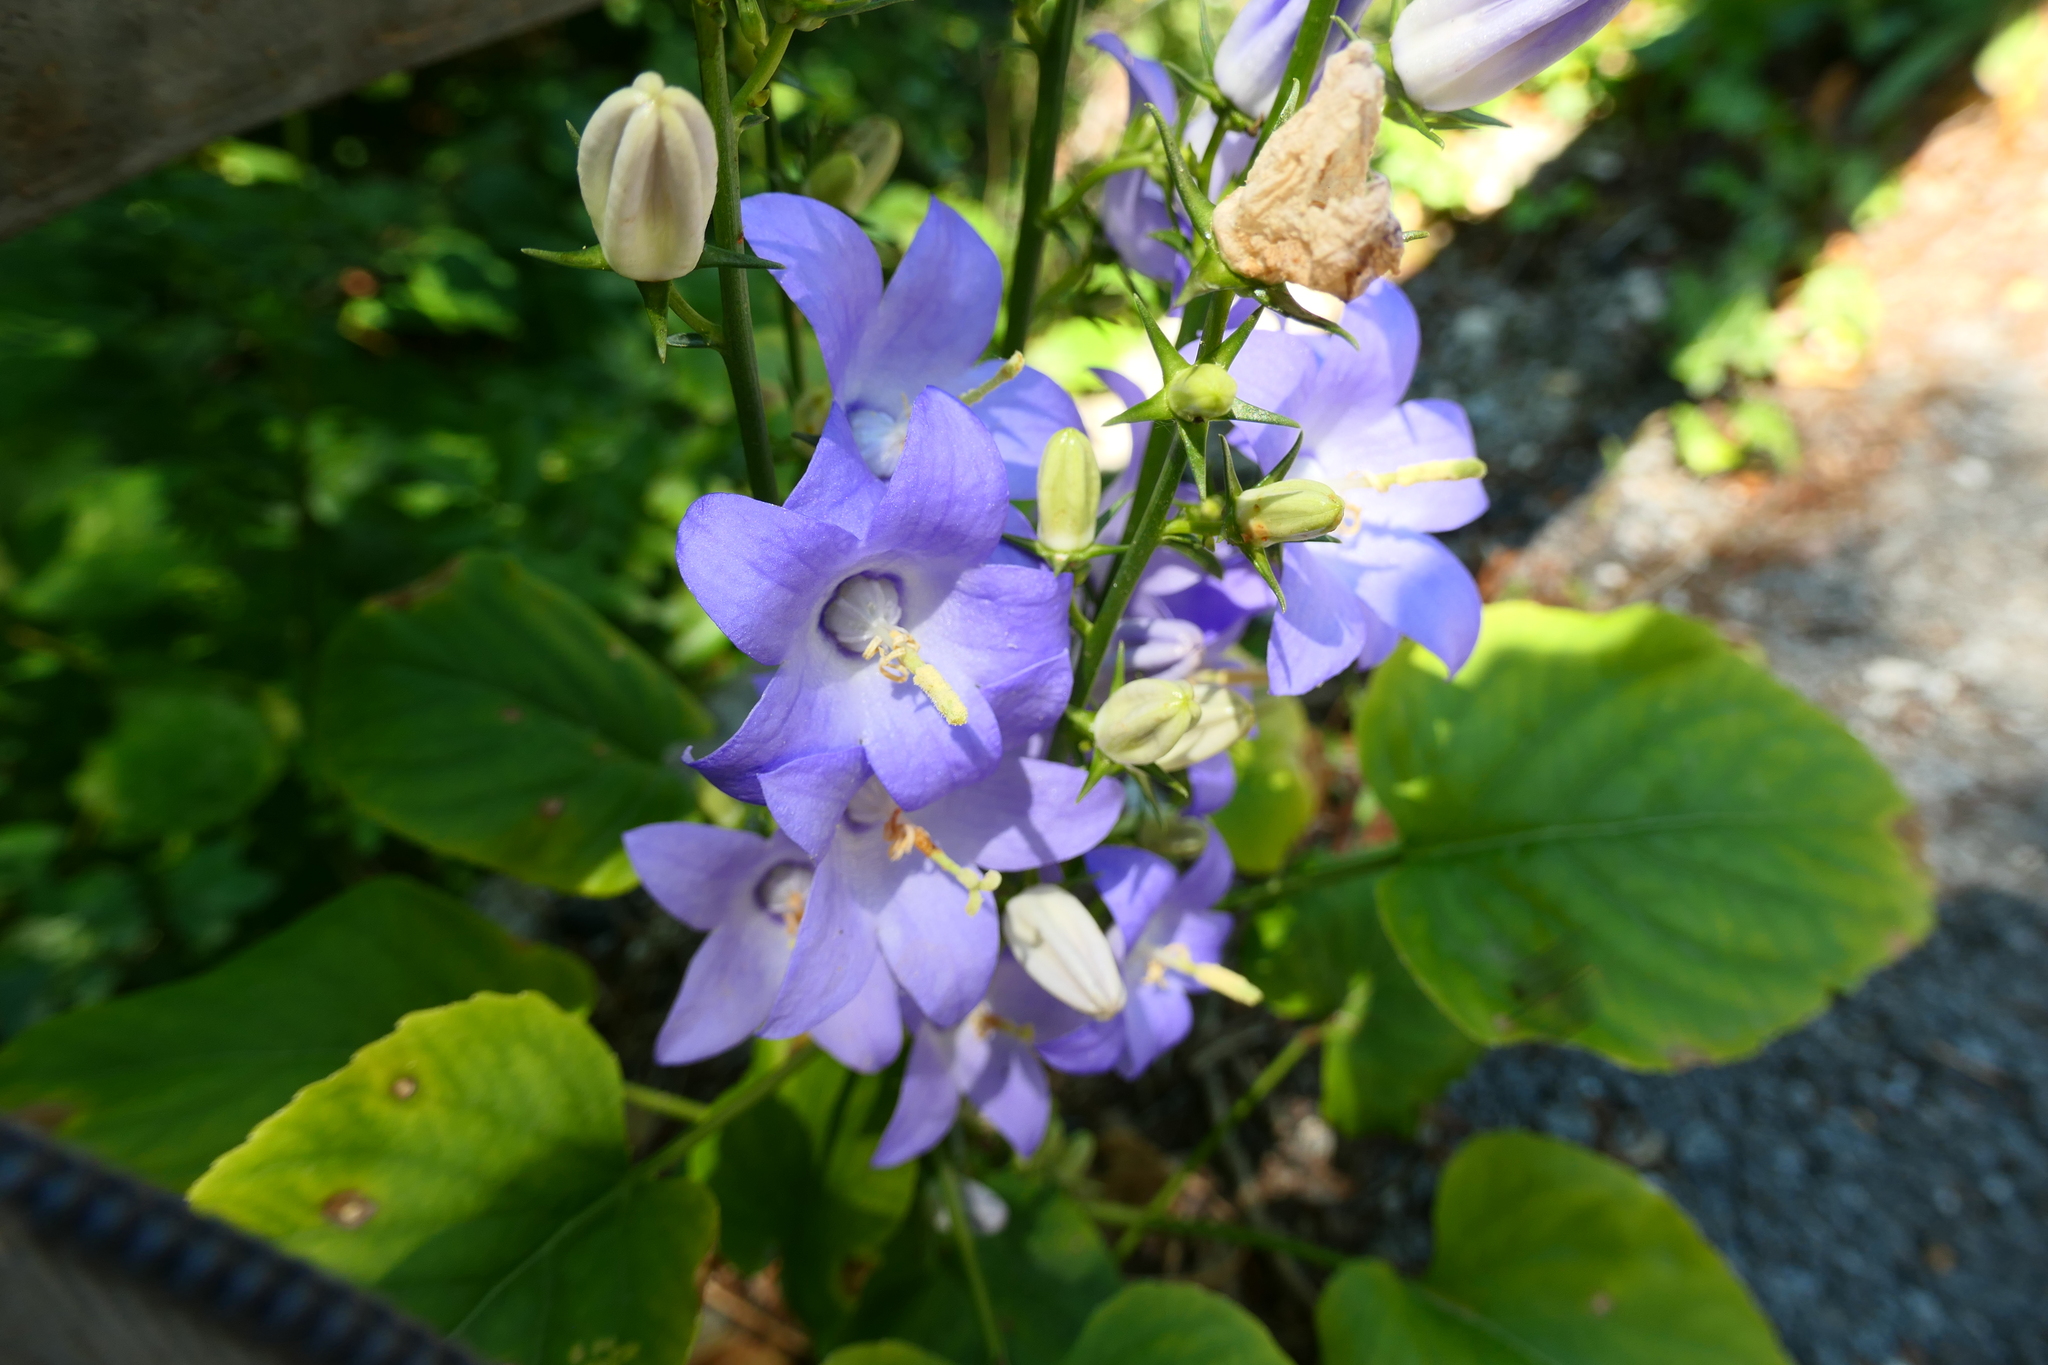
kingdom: Plantae
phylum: Tracheophyta
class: Magnoliopsida
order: Asterales
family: Campanulaceae
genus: Campanula
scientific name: Campanula pyramidalis
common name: Chimney bellflower
